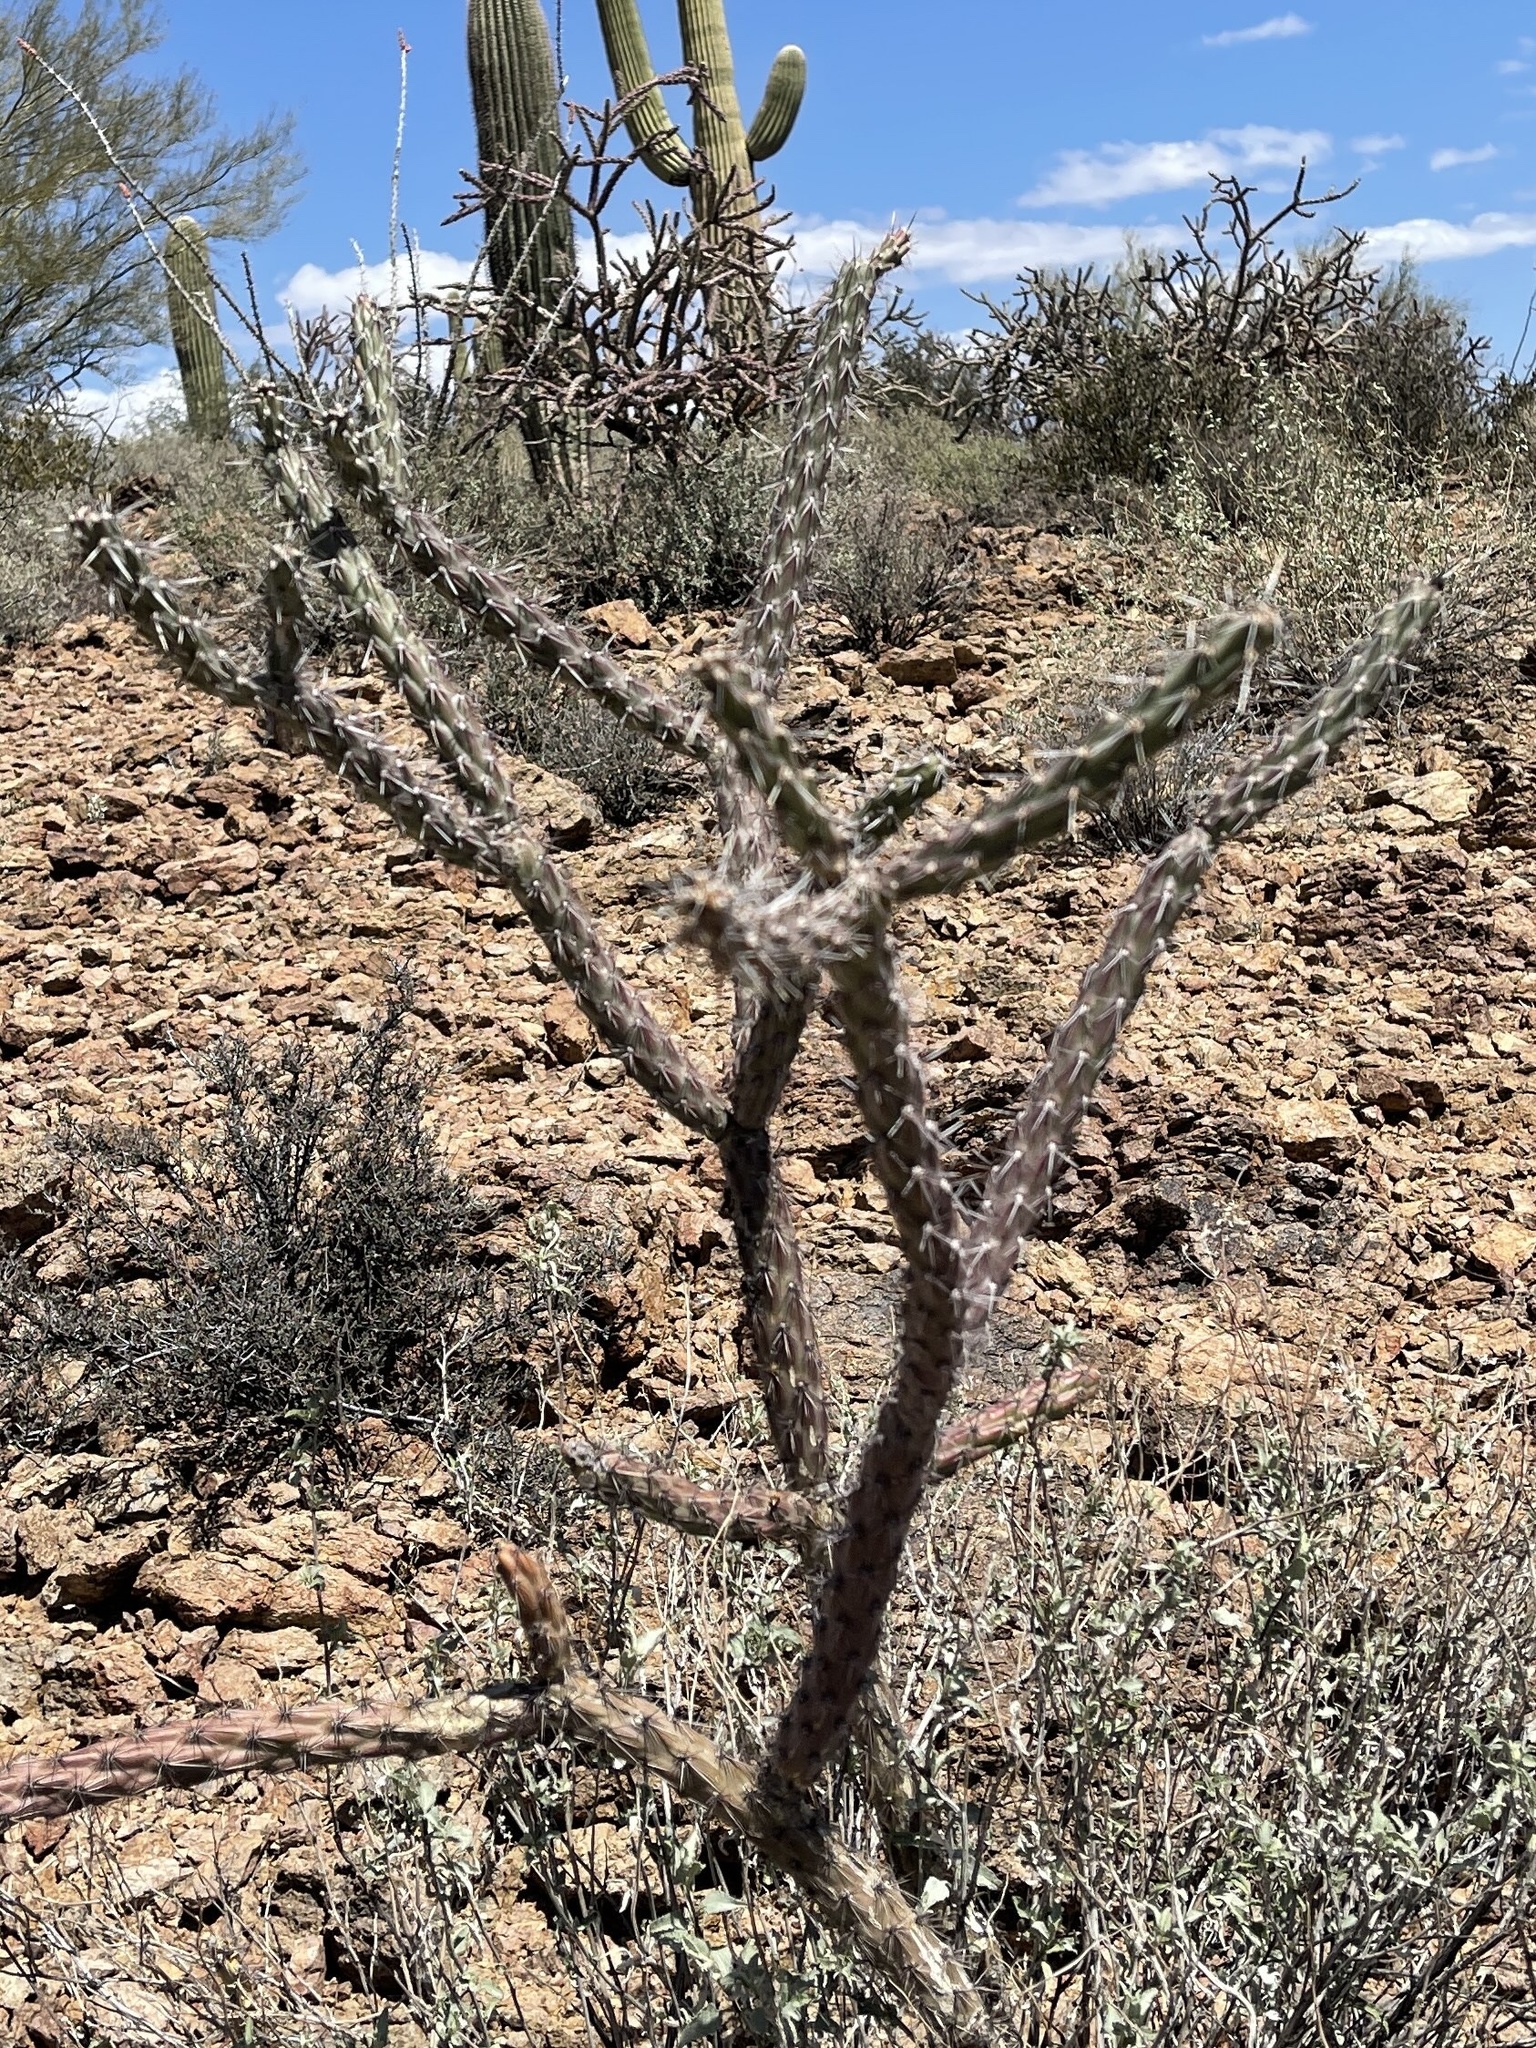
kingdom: Plantae
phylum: Tracheophyta
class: Magnoliopsida
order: Caryophyllales
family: Cactaceae
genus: Cylindropuntia
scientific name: Cylindropuntia acanthocarpa
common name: Buckhorn cholla
